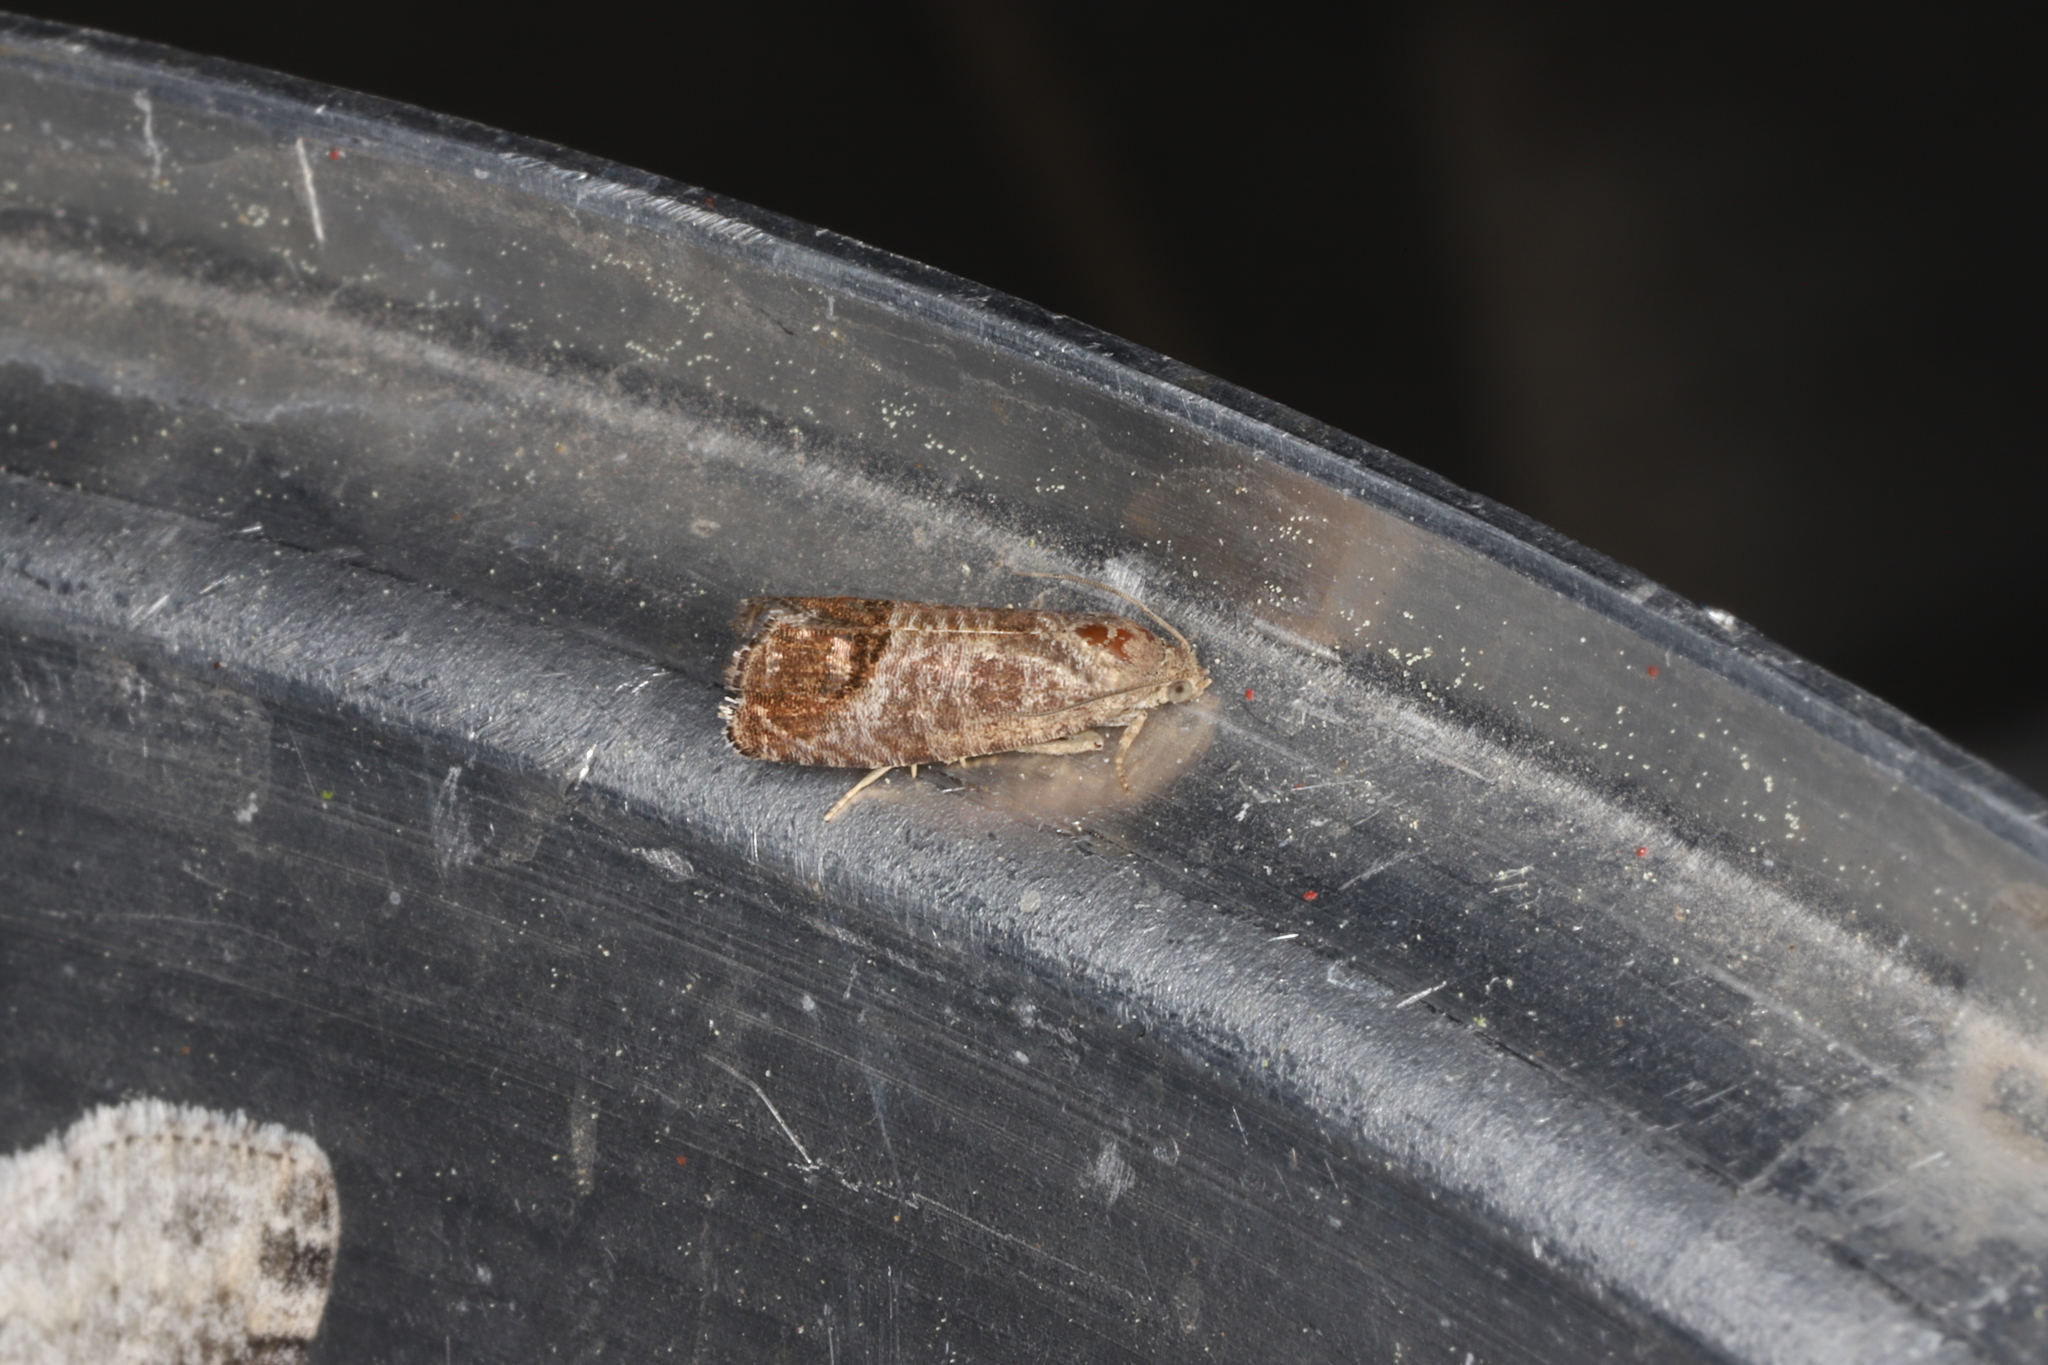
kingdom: Animalia
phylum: Arthropoda
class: Insecta
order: Lepidoptera
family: Tortricidae
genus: Cydia
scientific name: Cydia pomonella
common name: Codling moth
